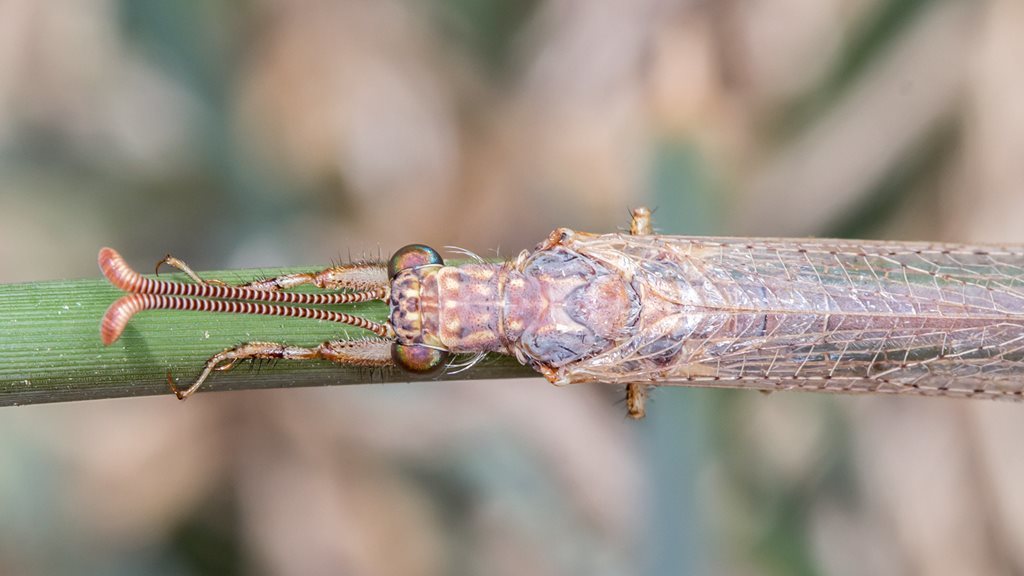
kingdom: Animalia
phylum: Arthropoda
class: Insecta
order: Neuroptera
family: Myrmeleontidae
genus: Distoleon
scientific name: Distoleon bistrigatus
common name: Lacewing
